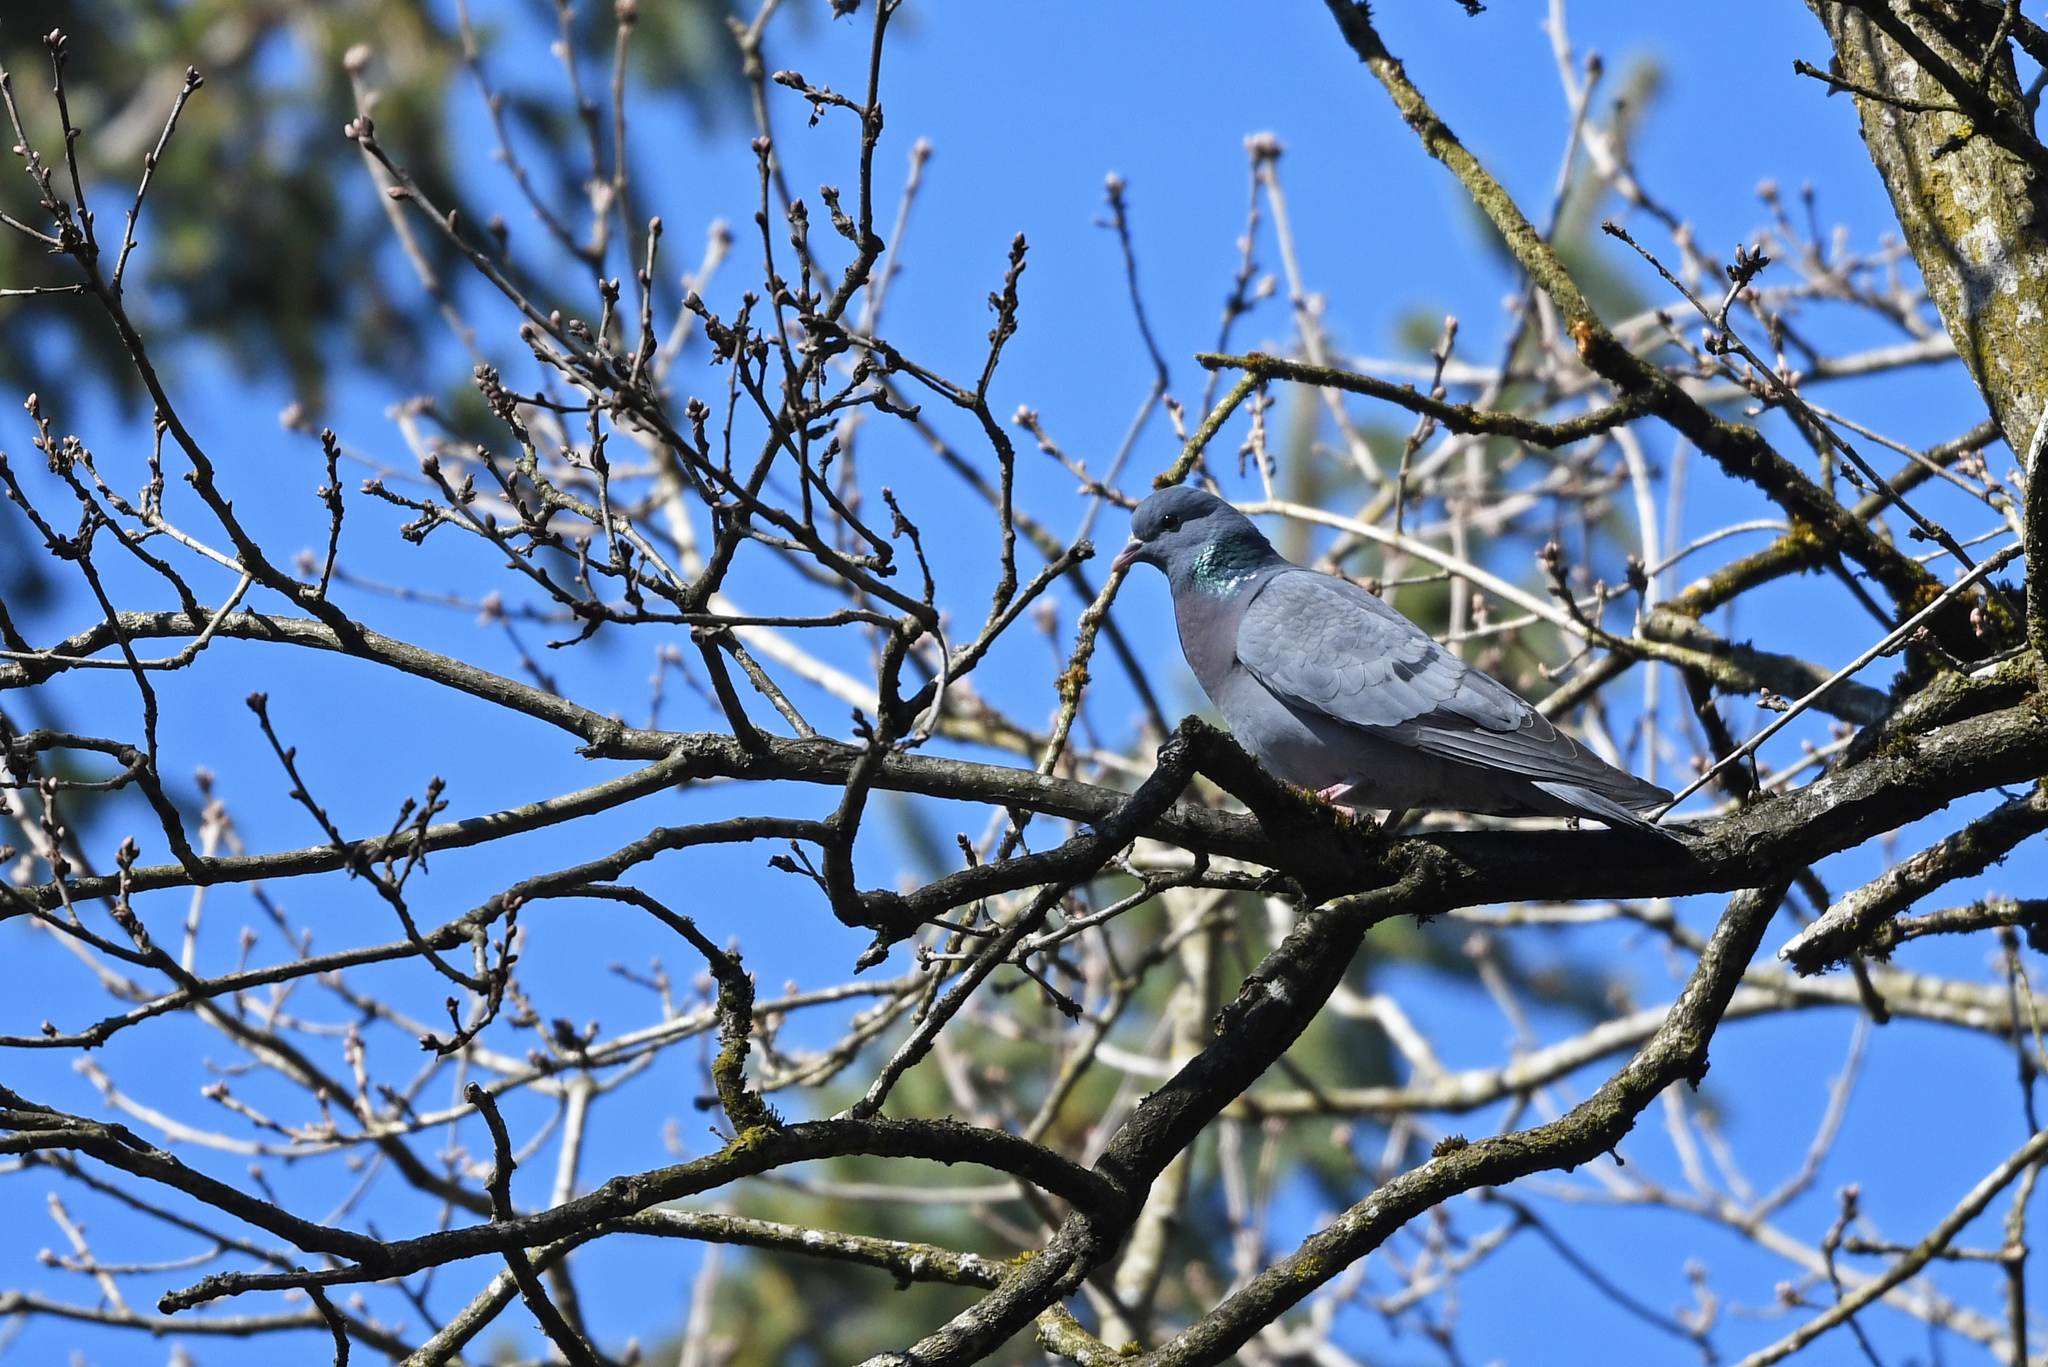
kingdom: Animalia
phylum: Chordata
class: Aves
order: Columbiformes
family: Columbidae
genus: Columba
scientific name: Columba oenas
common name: Stock dove
